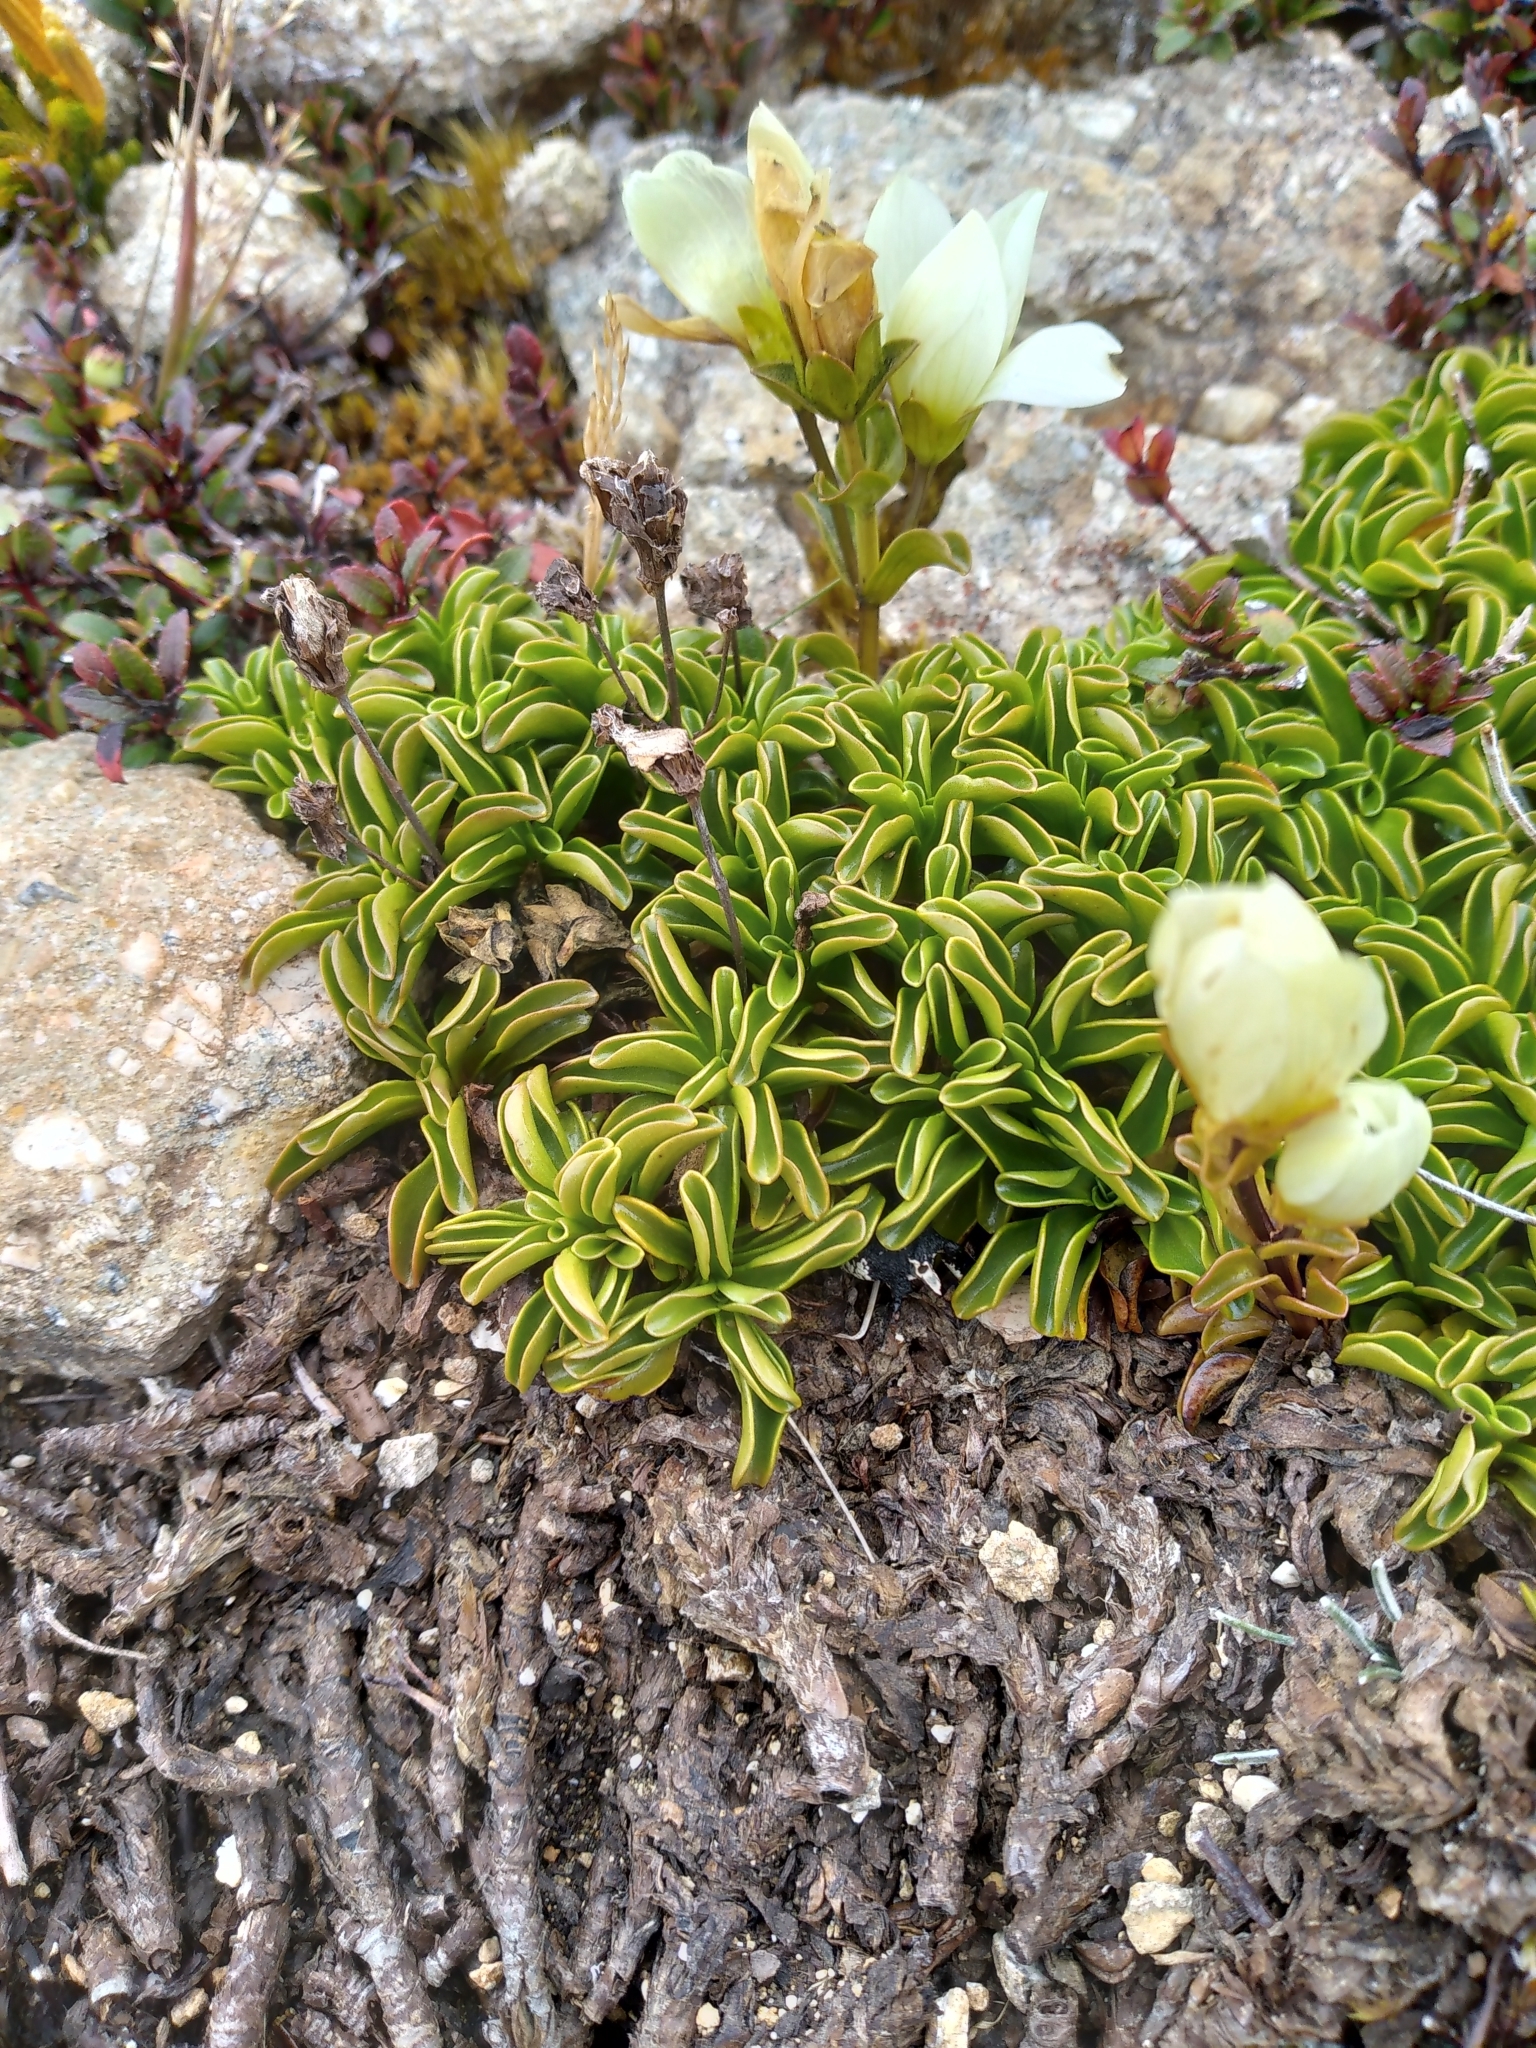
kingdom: Plantae
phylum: Tracheophyta
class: Magnoliopsida
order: Gentianales
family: Gentianaceae
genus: Gentianella
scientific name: Gentianella decumbens
